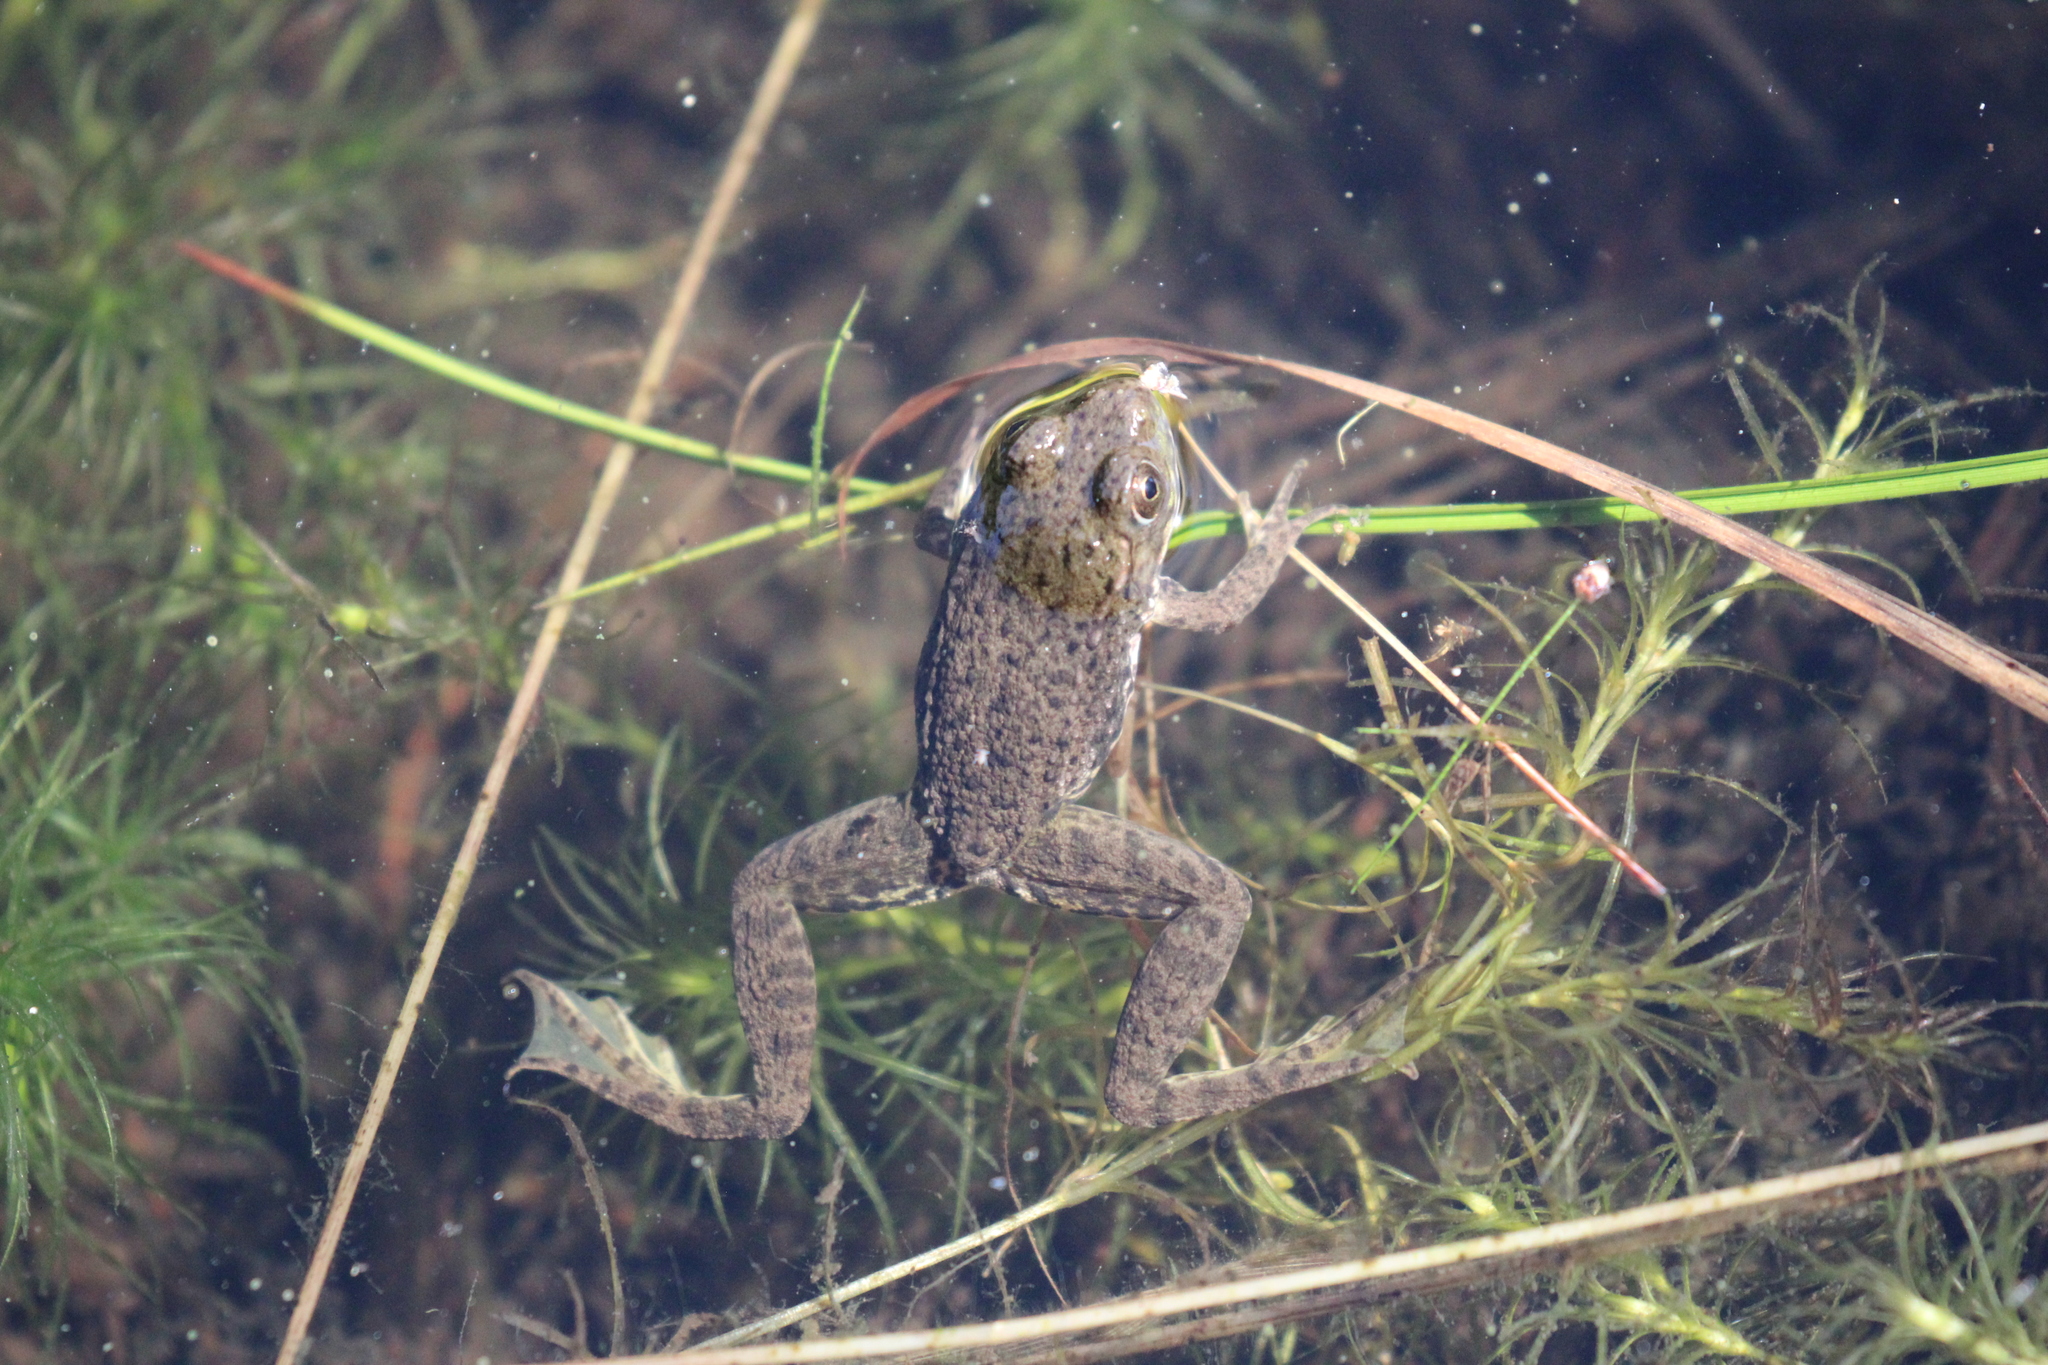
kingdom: Animalia
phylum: Chordata
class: Amphibia
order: Anura
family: Ranidae
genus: Lithobates
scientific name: Lithobates clamitans
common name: Green frog
